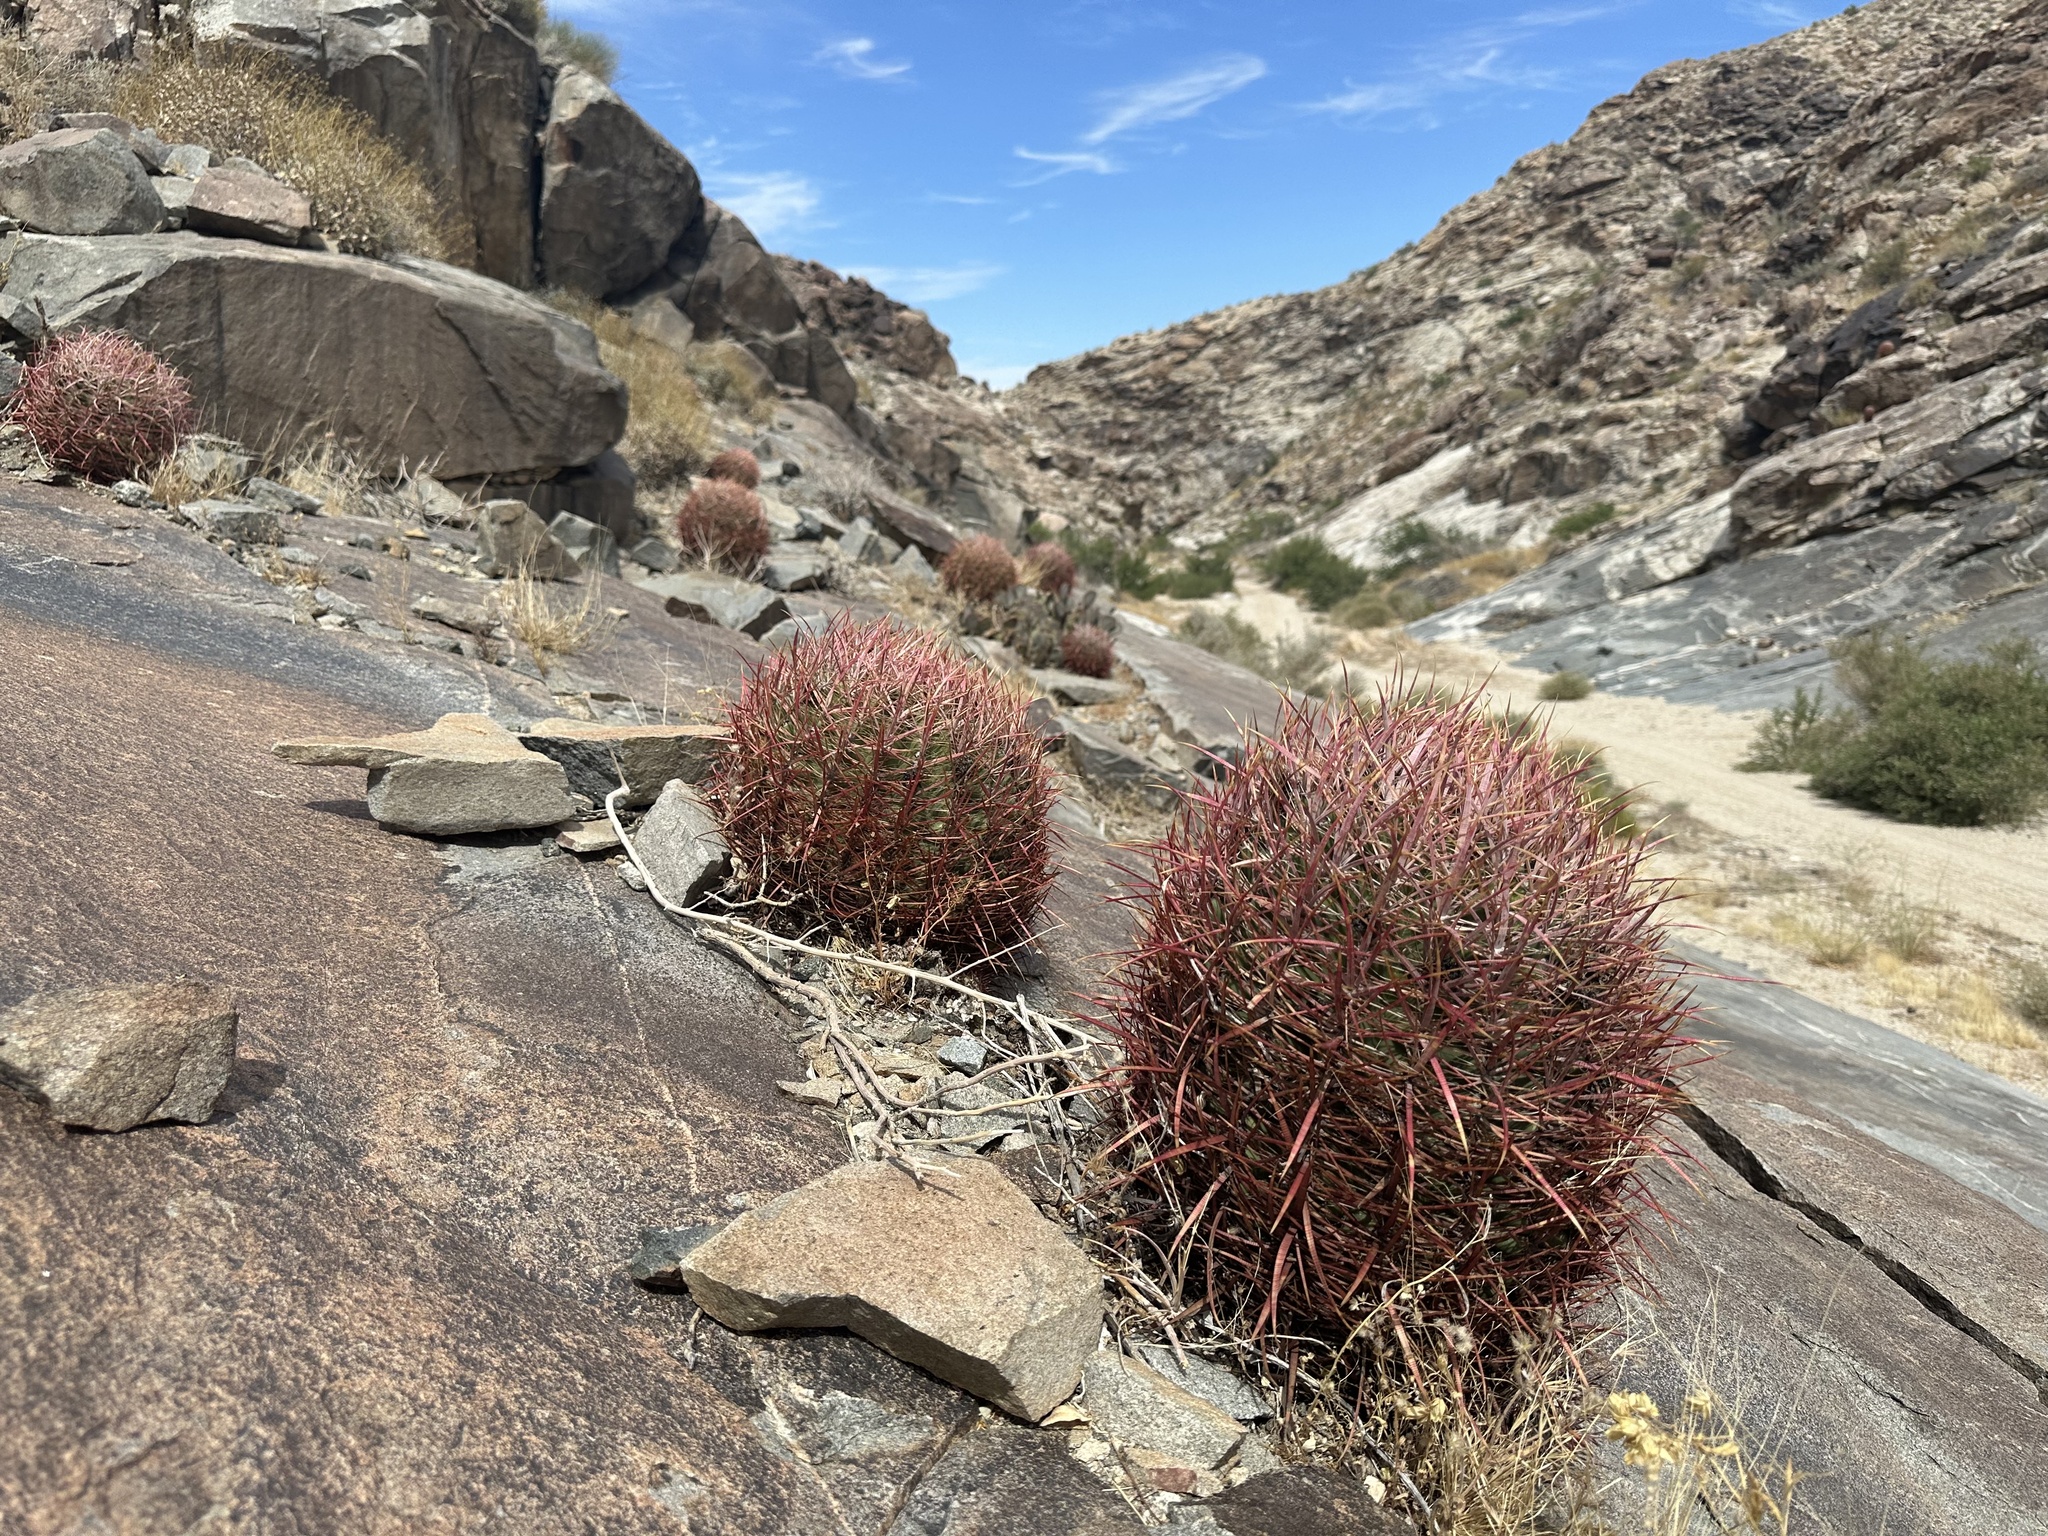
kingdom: Plantae
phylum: Tracheophyta
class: Magnoliopsida
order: Caryophyllales
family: Cactaceae
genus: Ferocactus
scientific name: Ferocactus cylindraceus
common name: California barrel cactus
